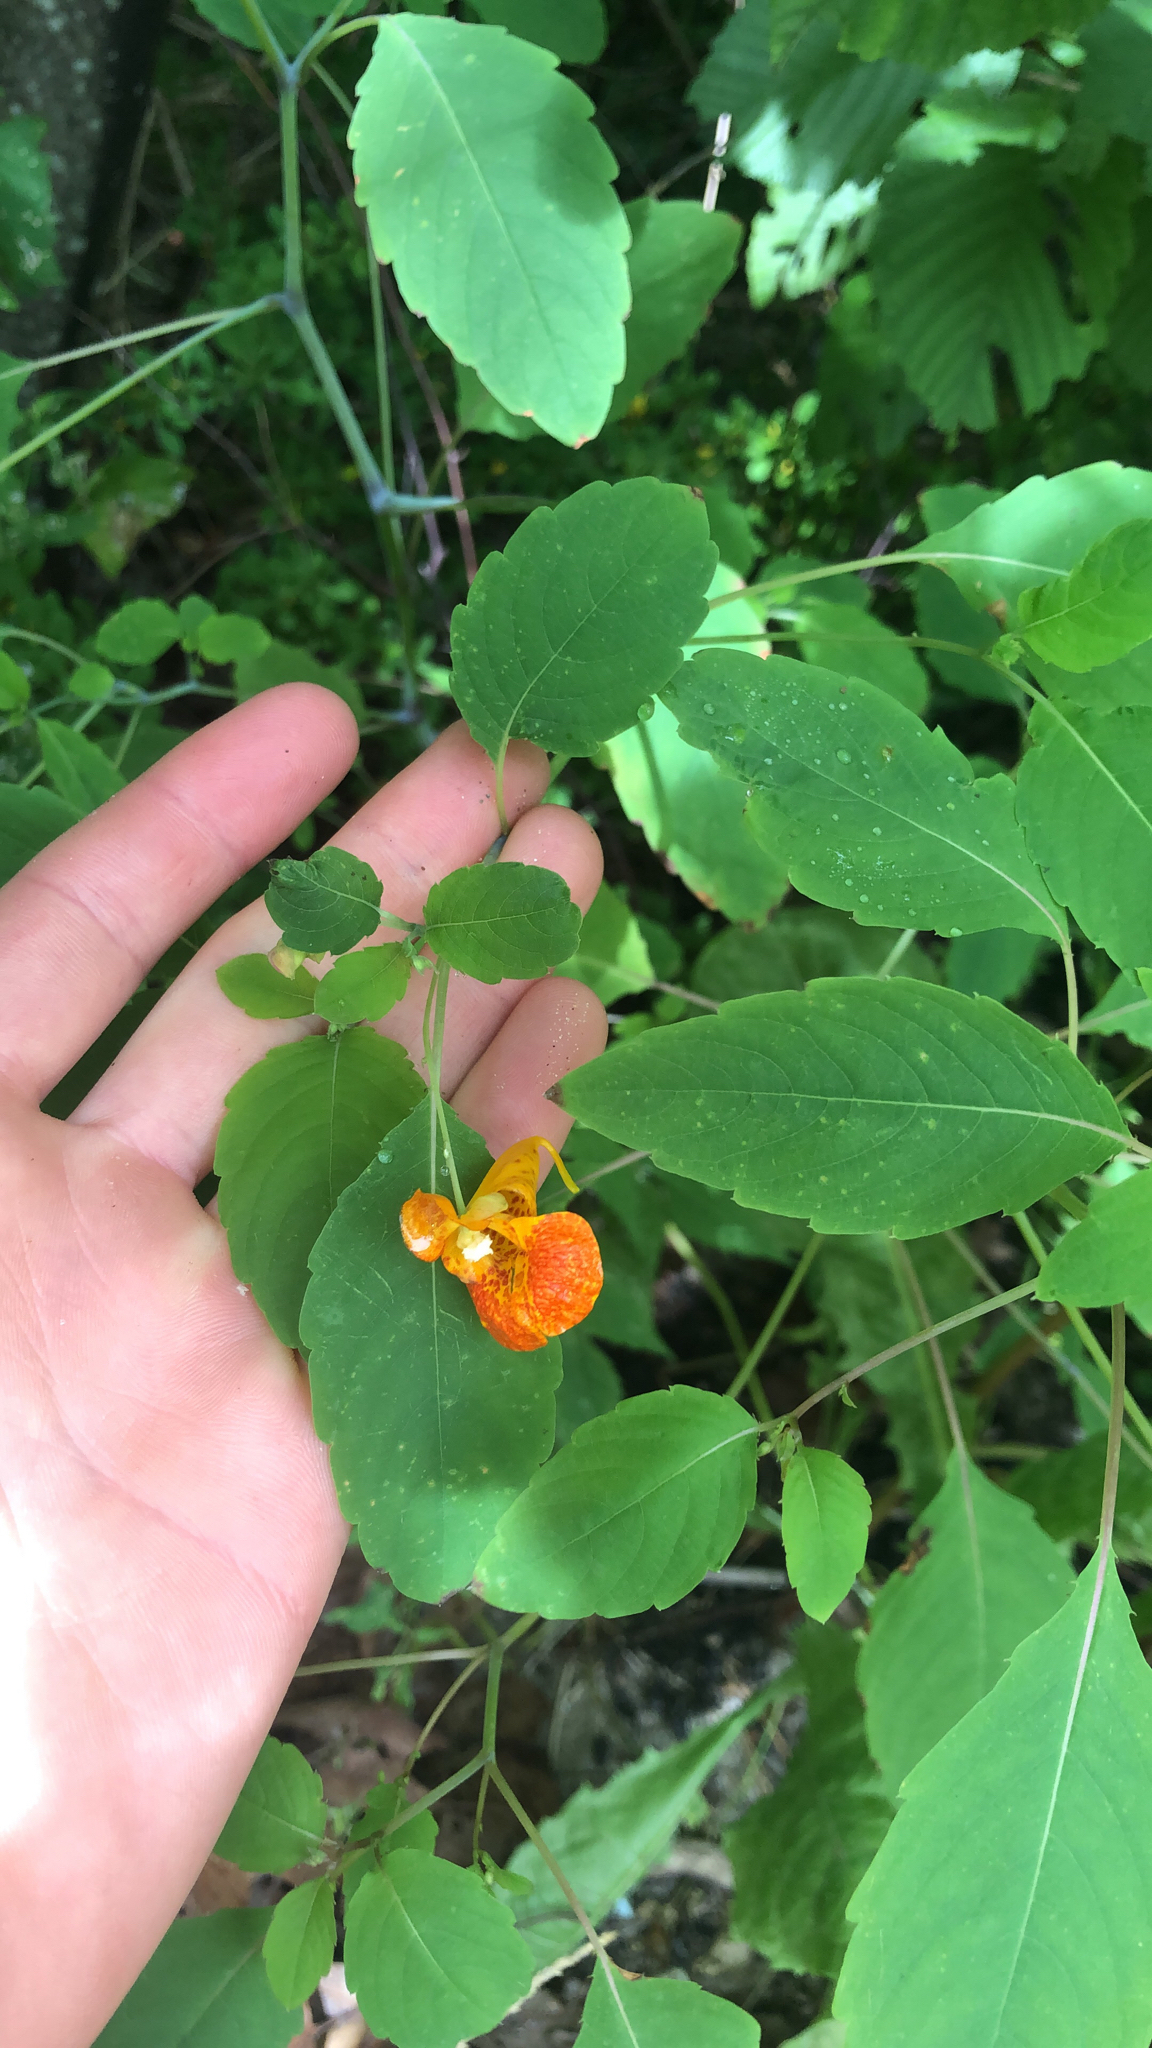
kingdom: Plantae
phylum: Tracheophyta
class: Magnoliopsida
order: Ericales
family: Balsaminaceae
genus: Impatiens
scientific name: Impatiens capensis
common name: Orange balsam
